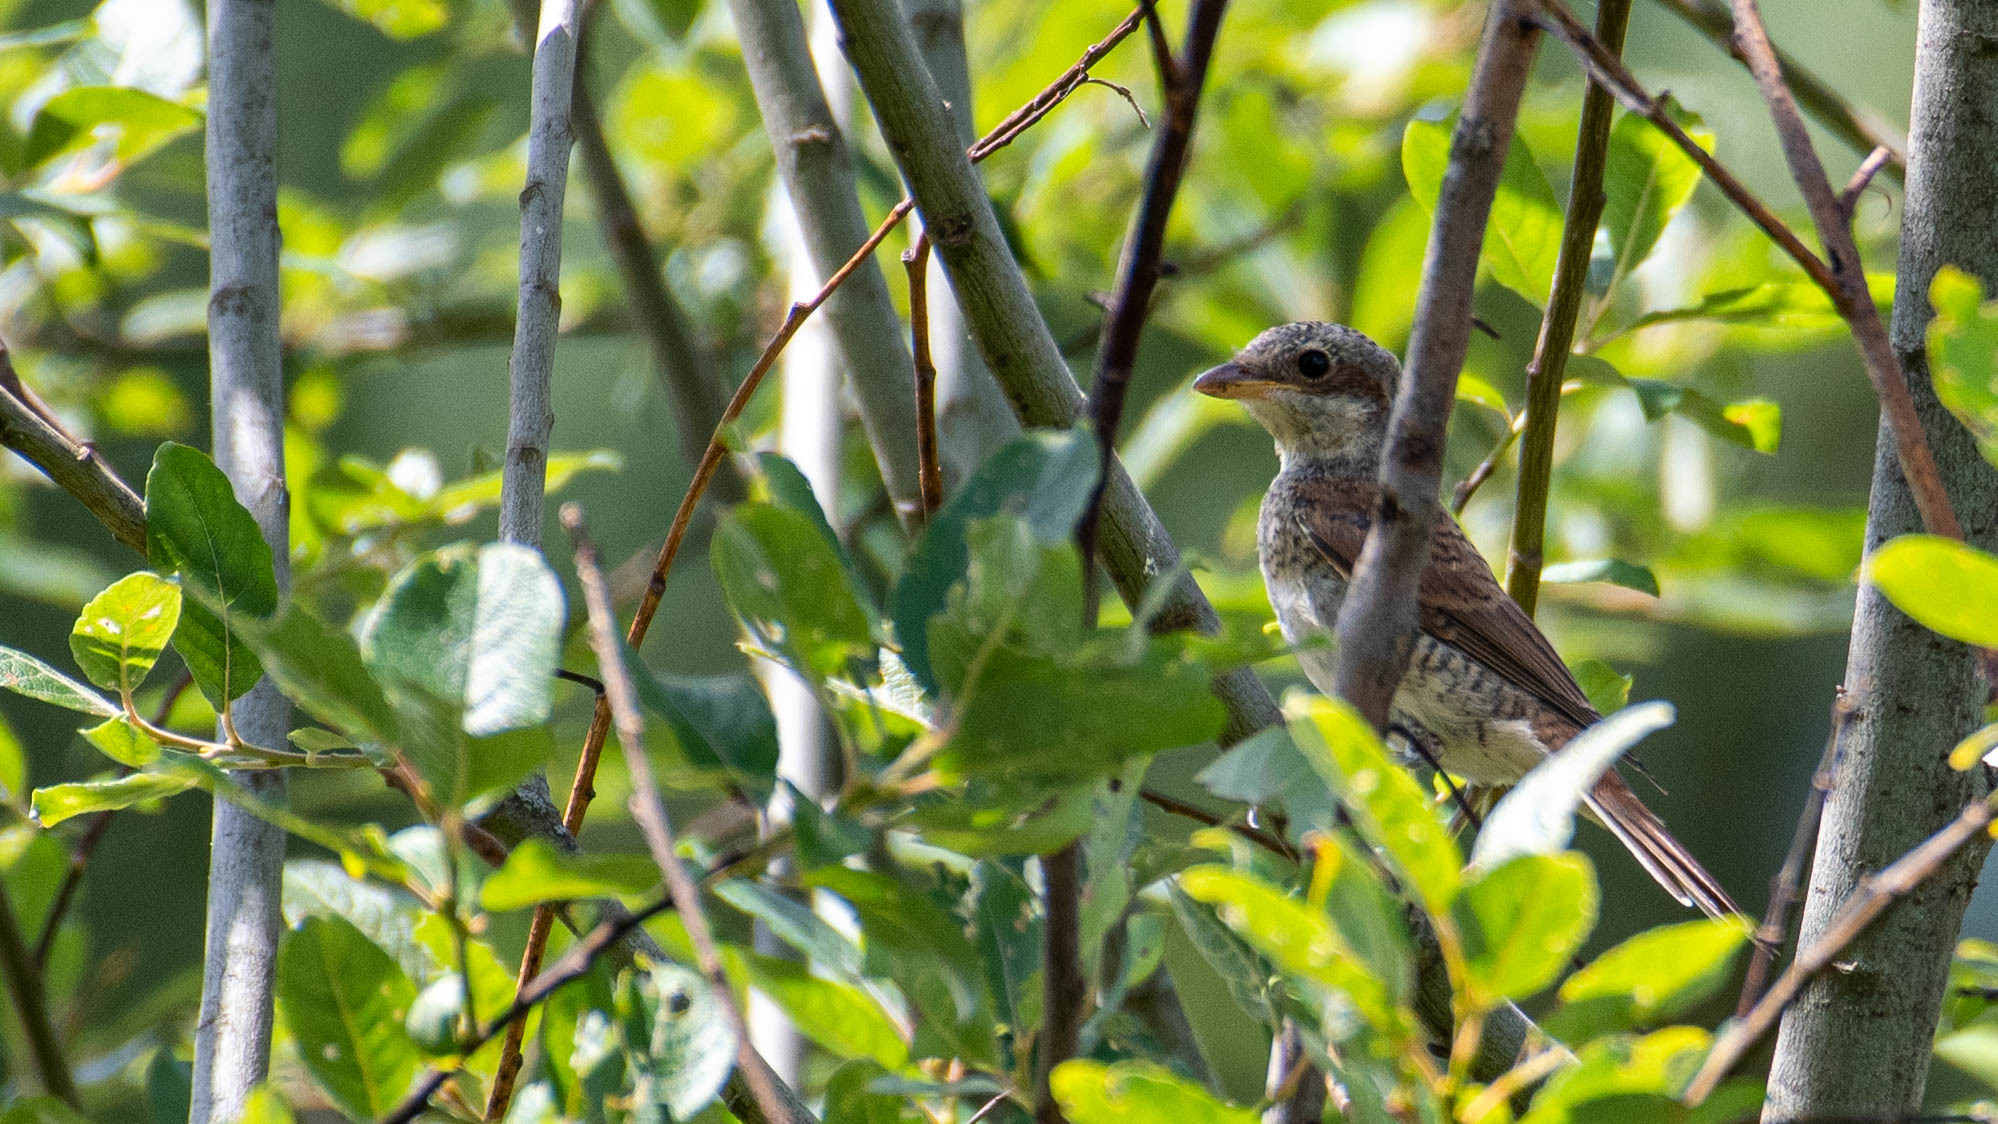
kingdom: Animalia
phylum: Chordata
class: Aves
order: Passeriformes
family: Laniidae
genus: Lanius
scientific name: Lanius collurio
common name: Red-backed shrike
